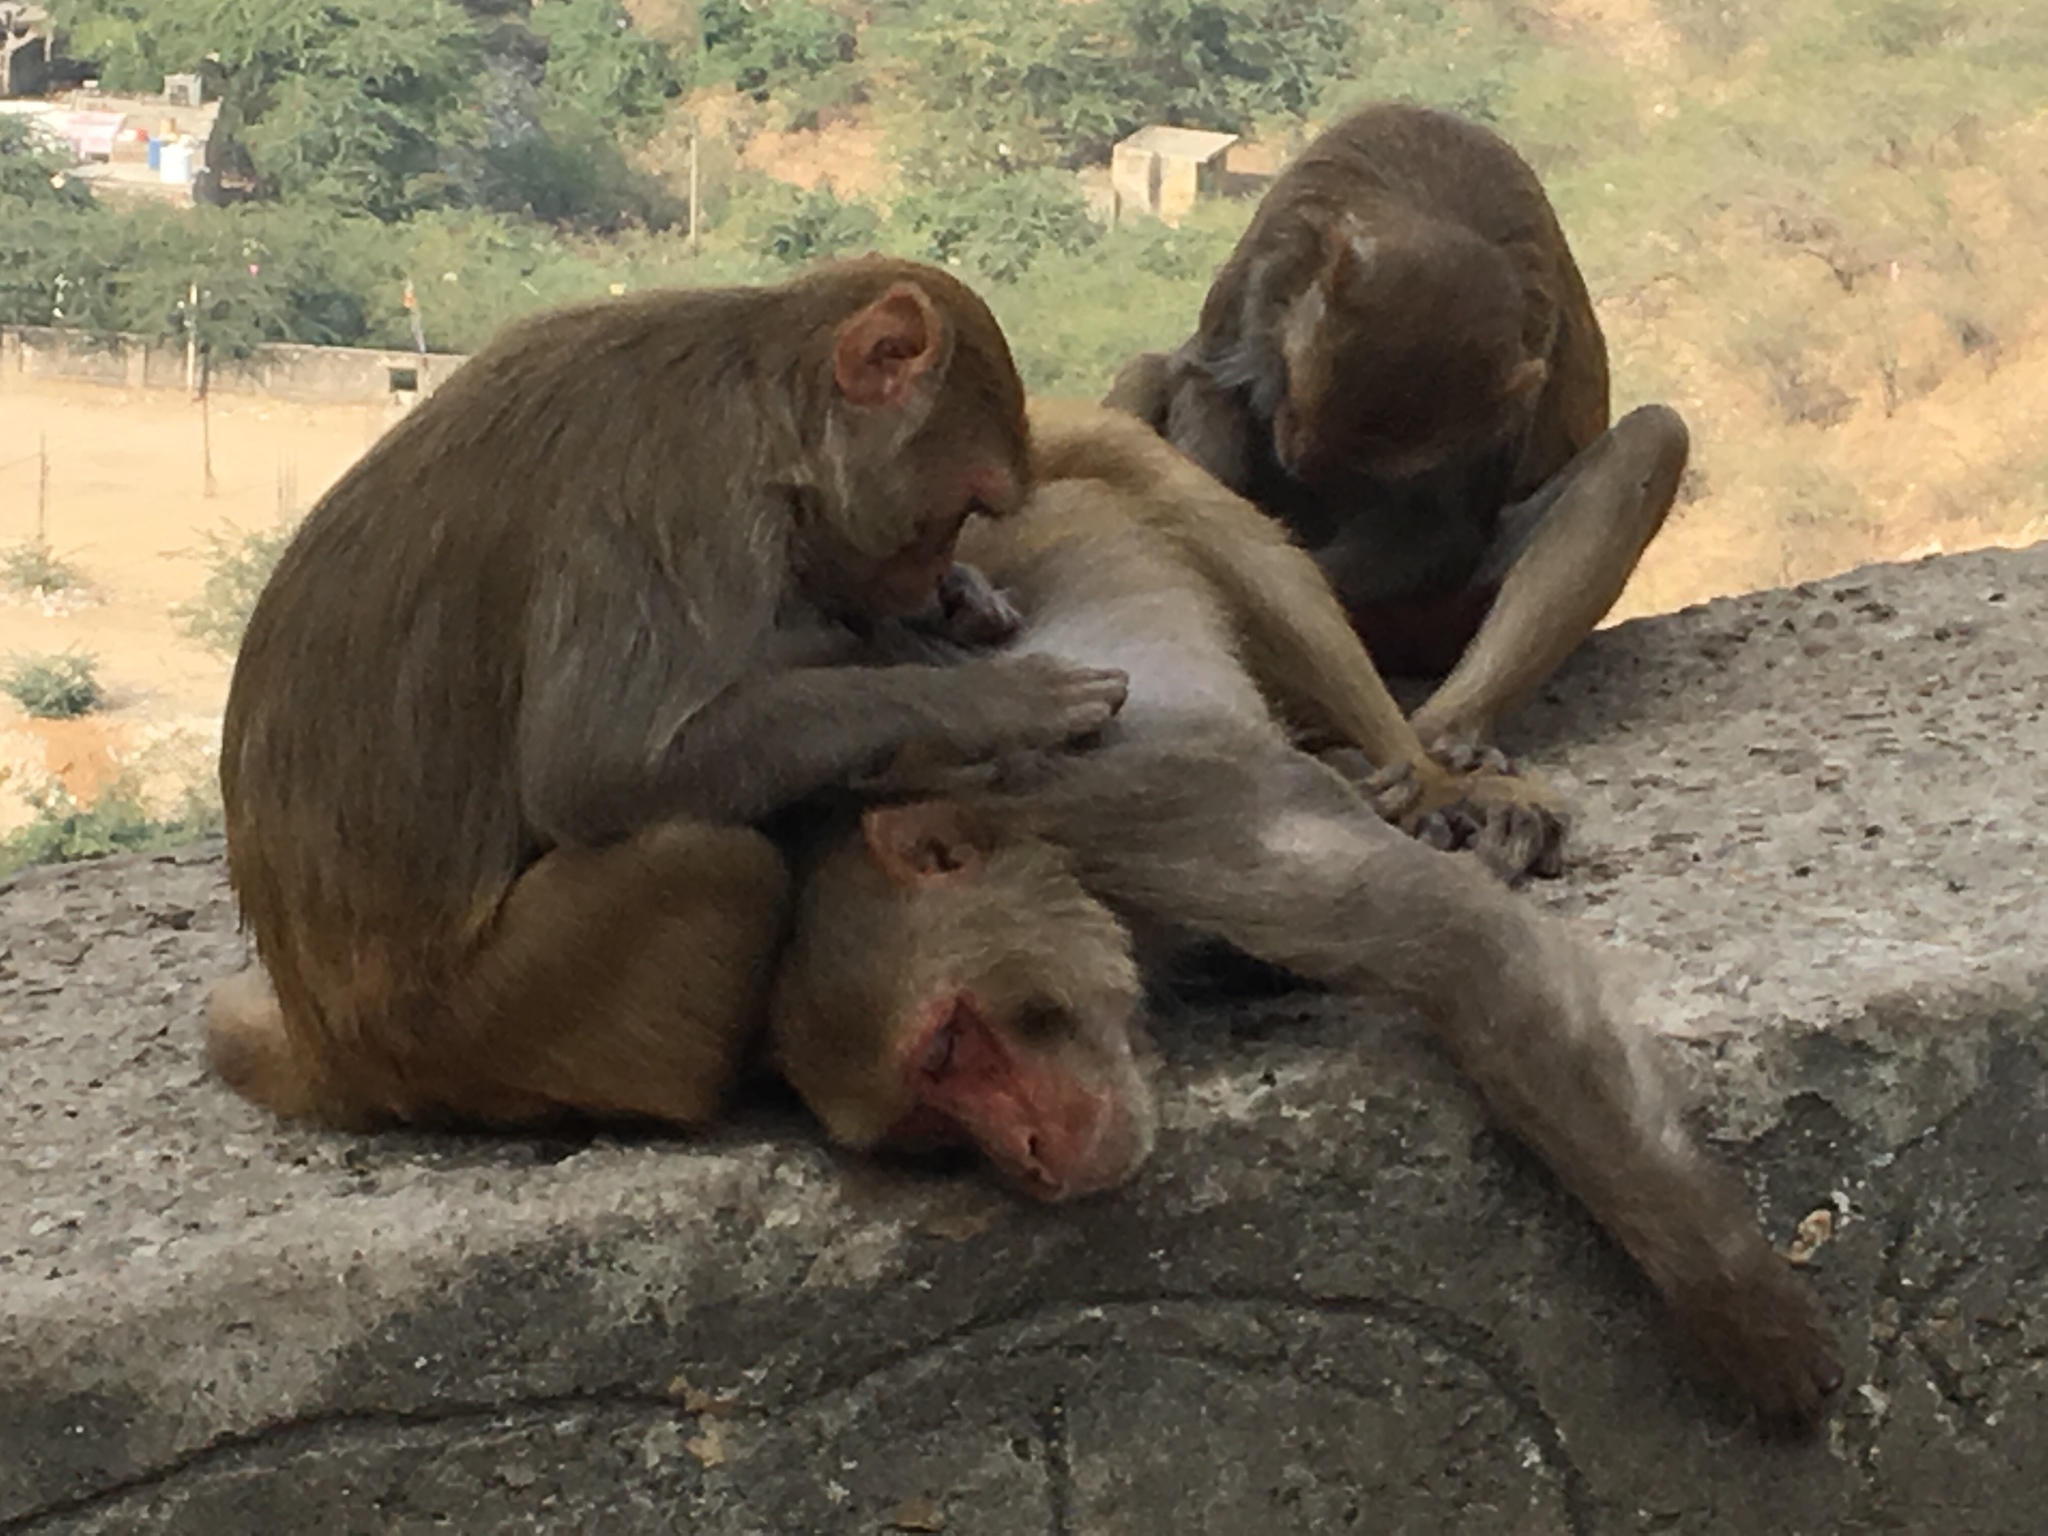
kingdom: Animalia
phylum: Chordata
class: Mammalia
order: Primates
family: Cercopithecidae
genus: Macaca
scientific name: Macaca mulatta
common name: Rhesus monkey
